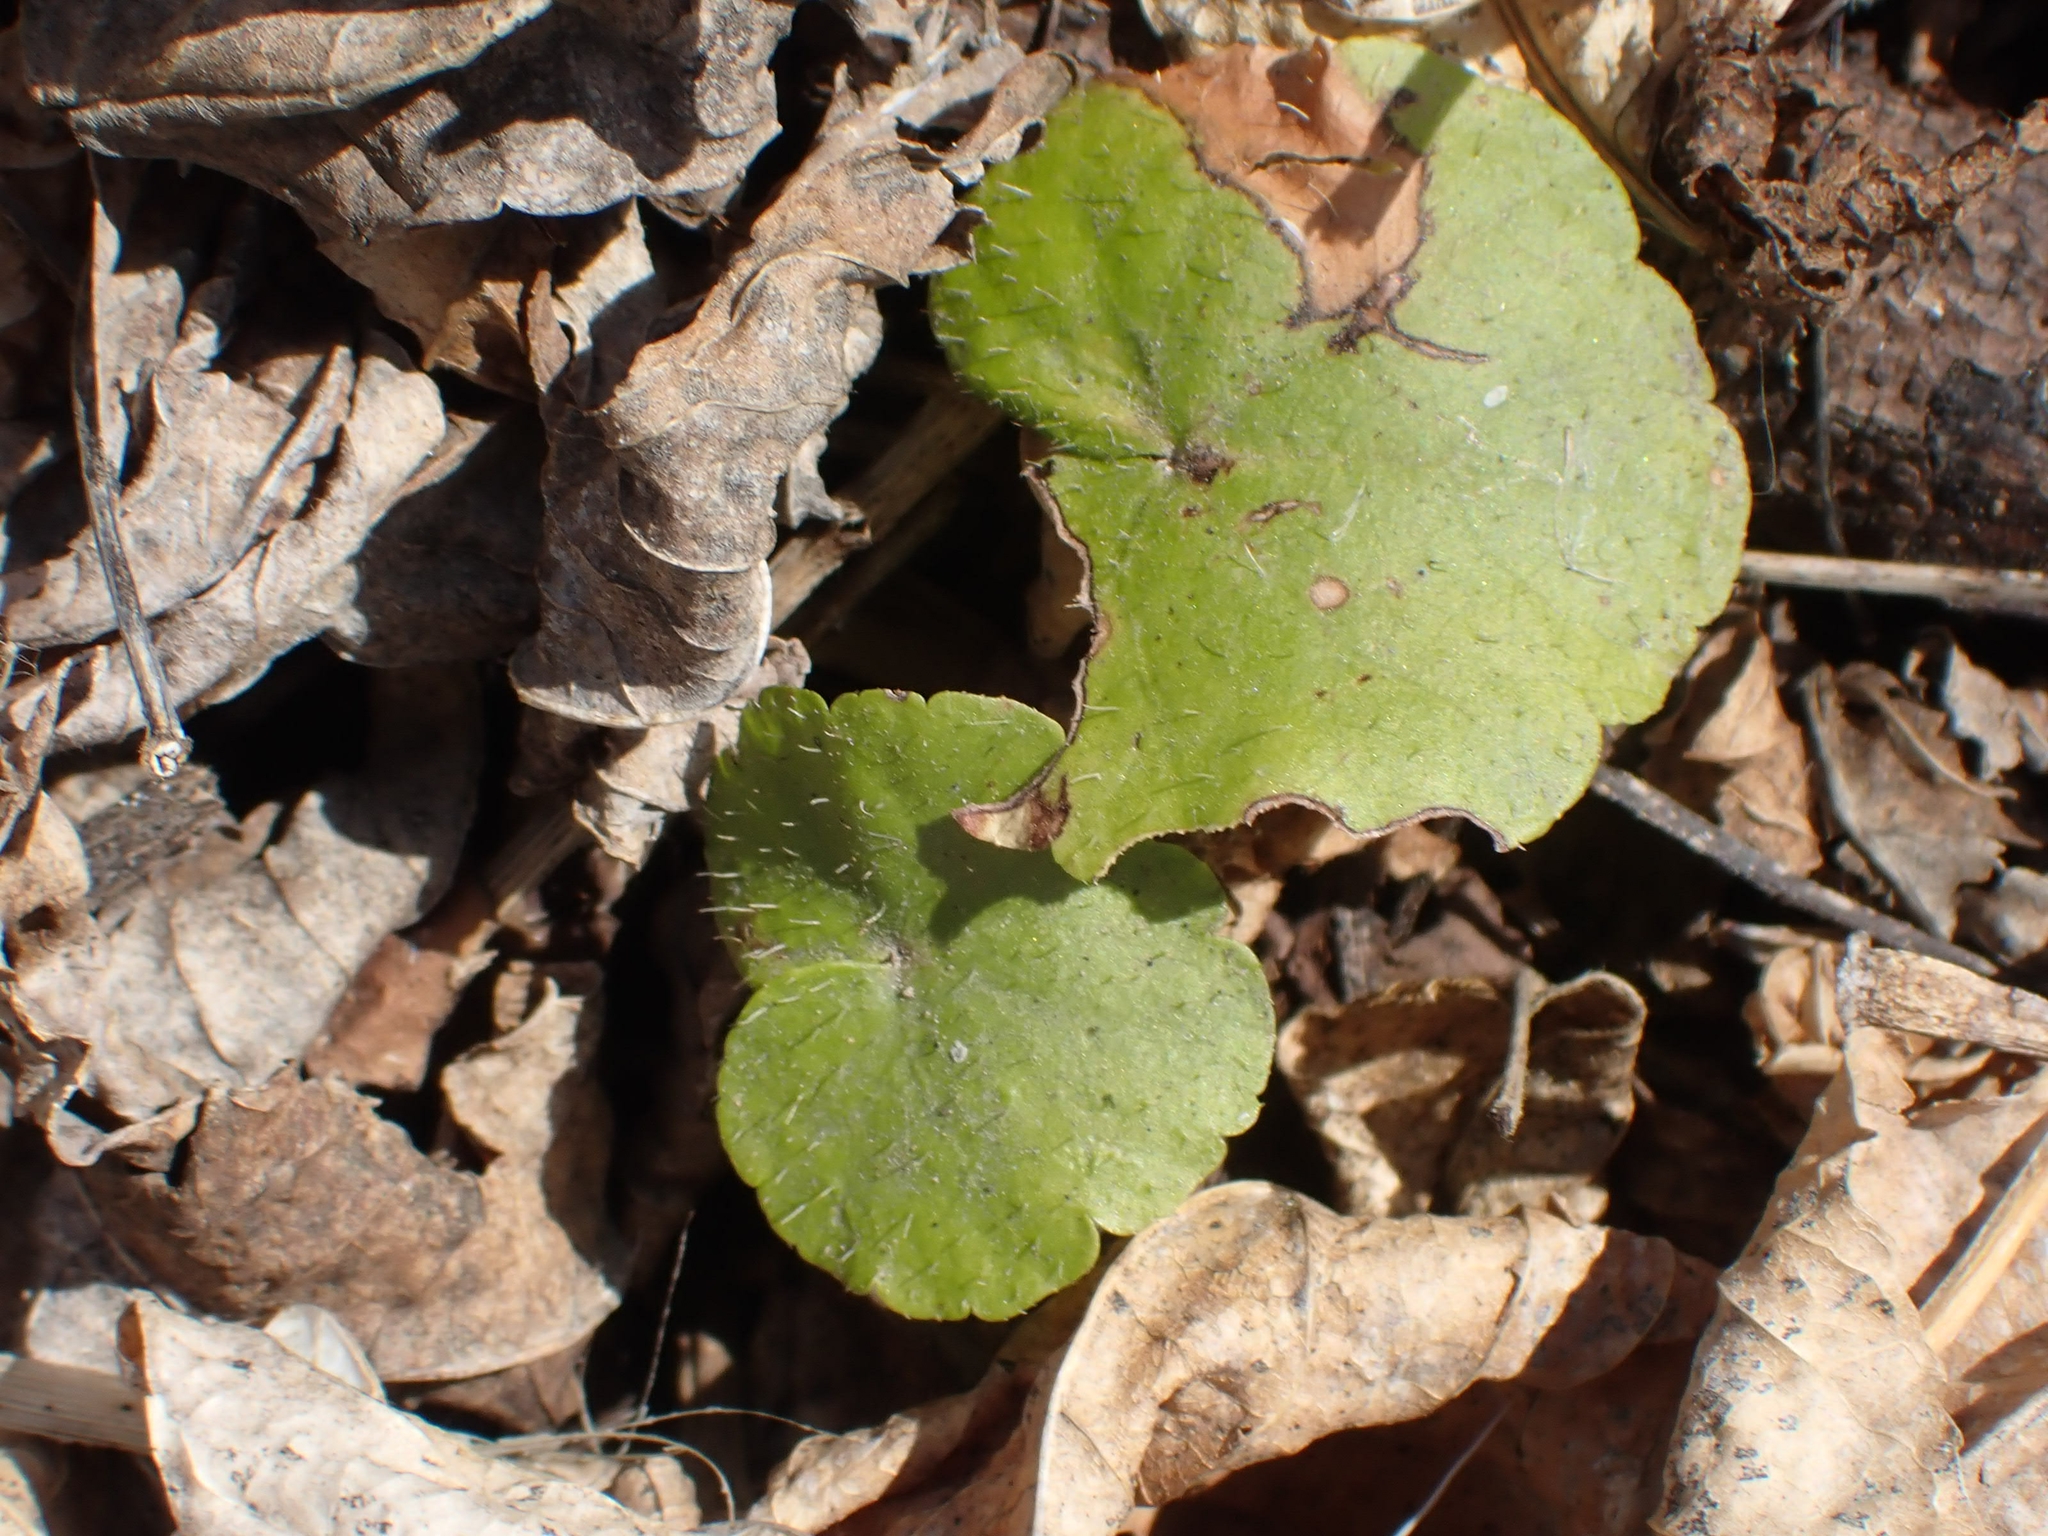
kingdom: Plantae
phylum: Tracheophyta
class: Magnoliopsida
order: Saxifragales
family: Saxifragaceae
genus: Mitella
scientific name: Mitella nuda
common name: Bare-stemmed bishop's-cap
